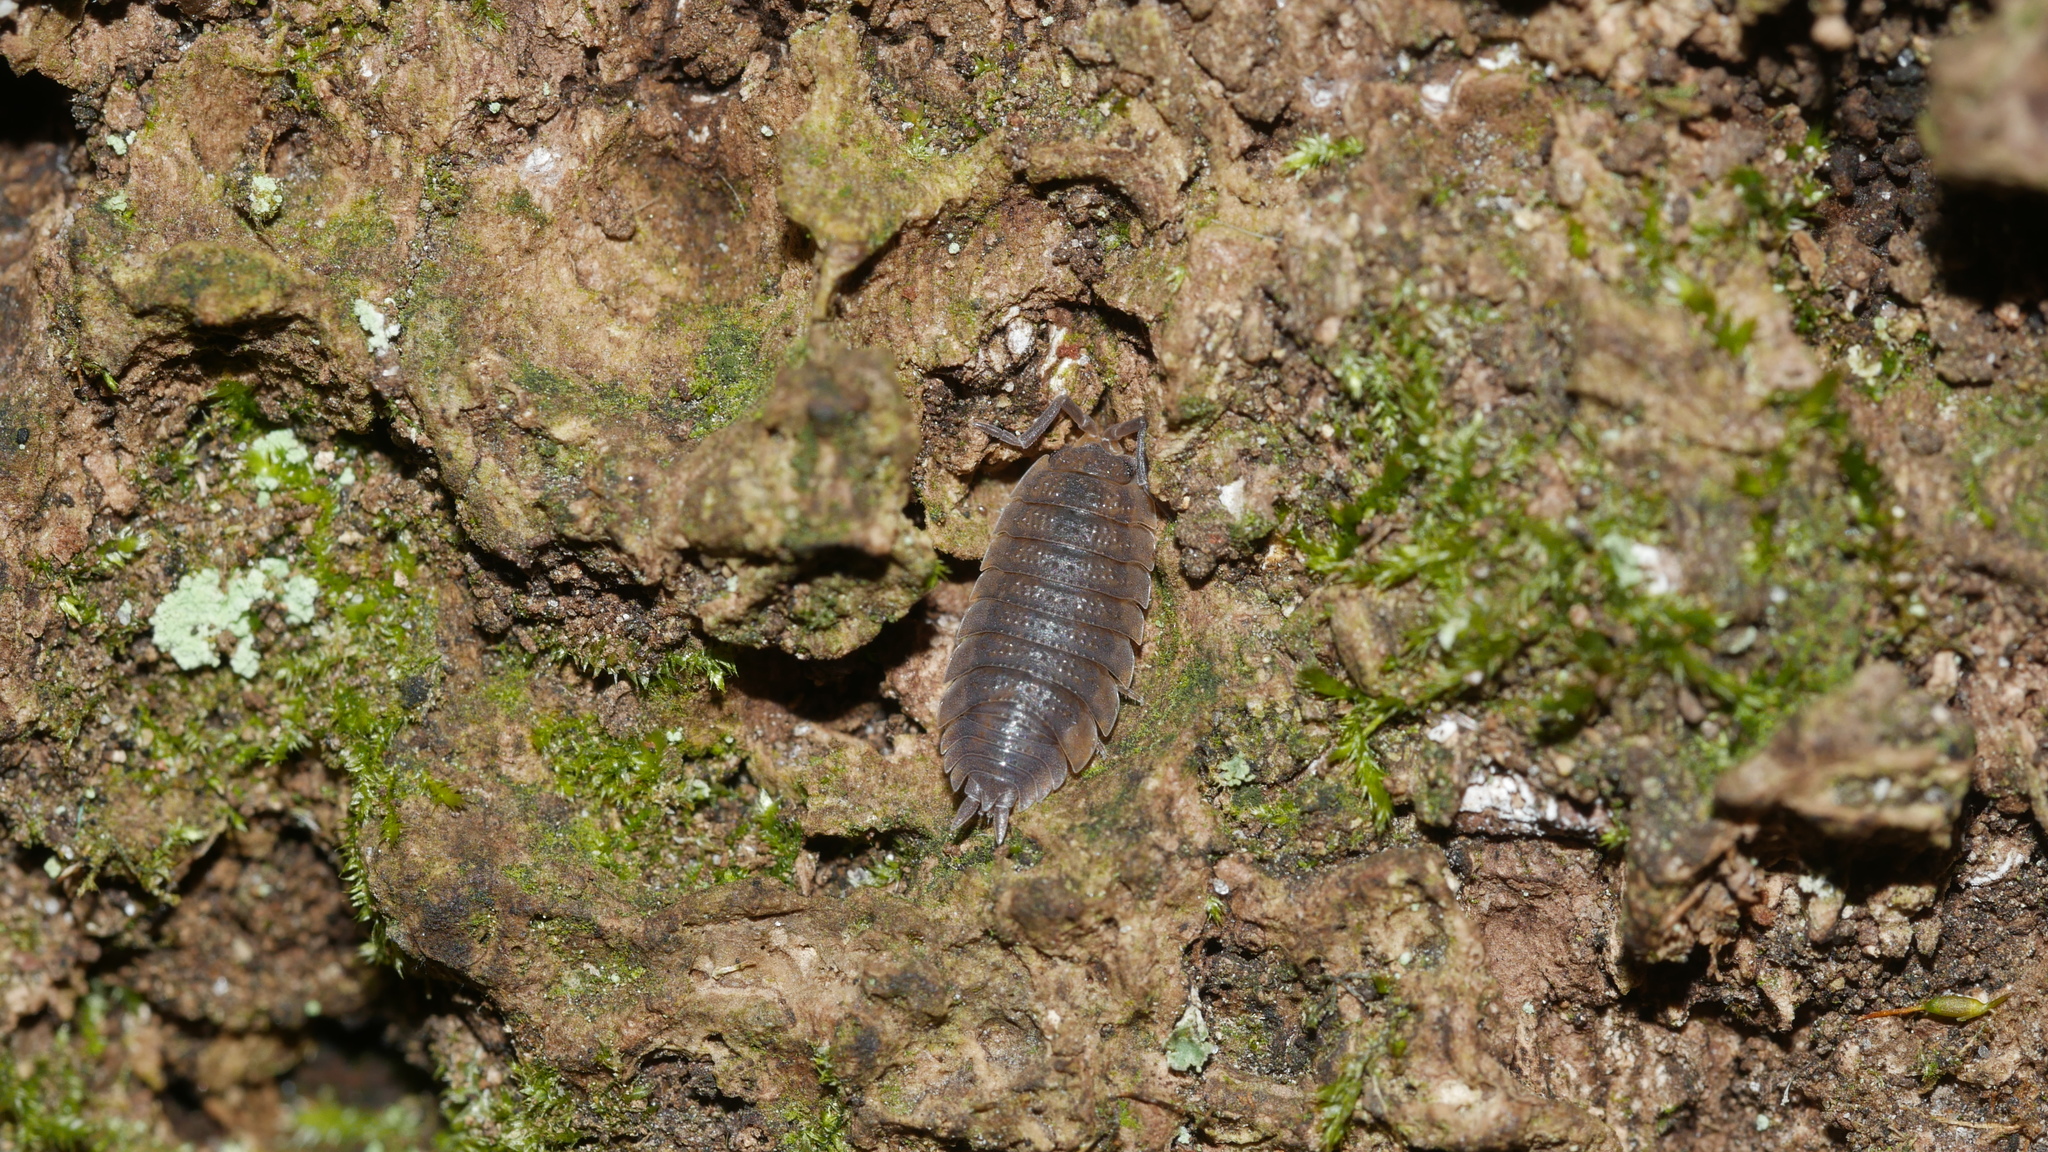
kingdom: Animalia
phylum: Arthropoda
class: Malacostraca
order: Isopoda
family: Porcellionidae
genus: Porcellio
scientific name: Porcellio scaber
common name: Common rough woodlouse
